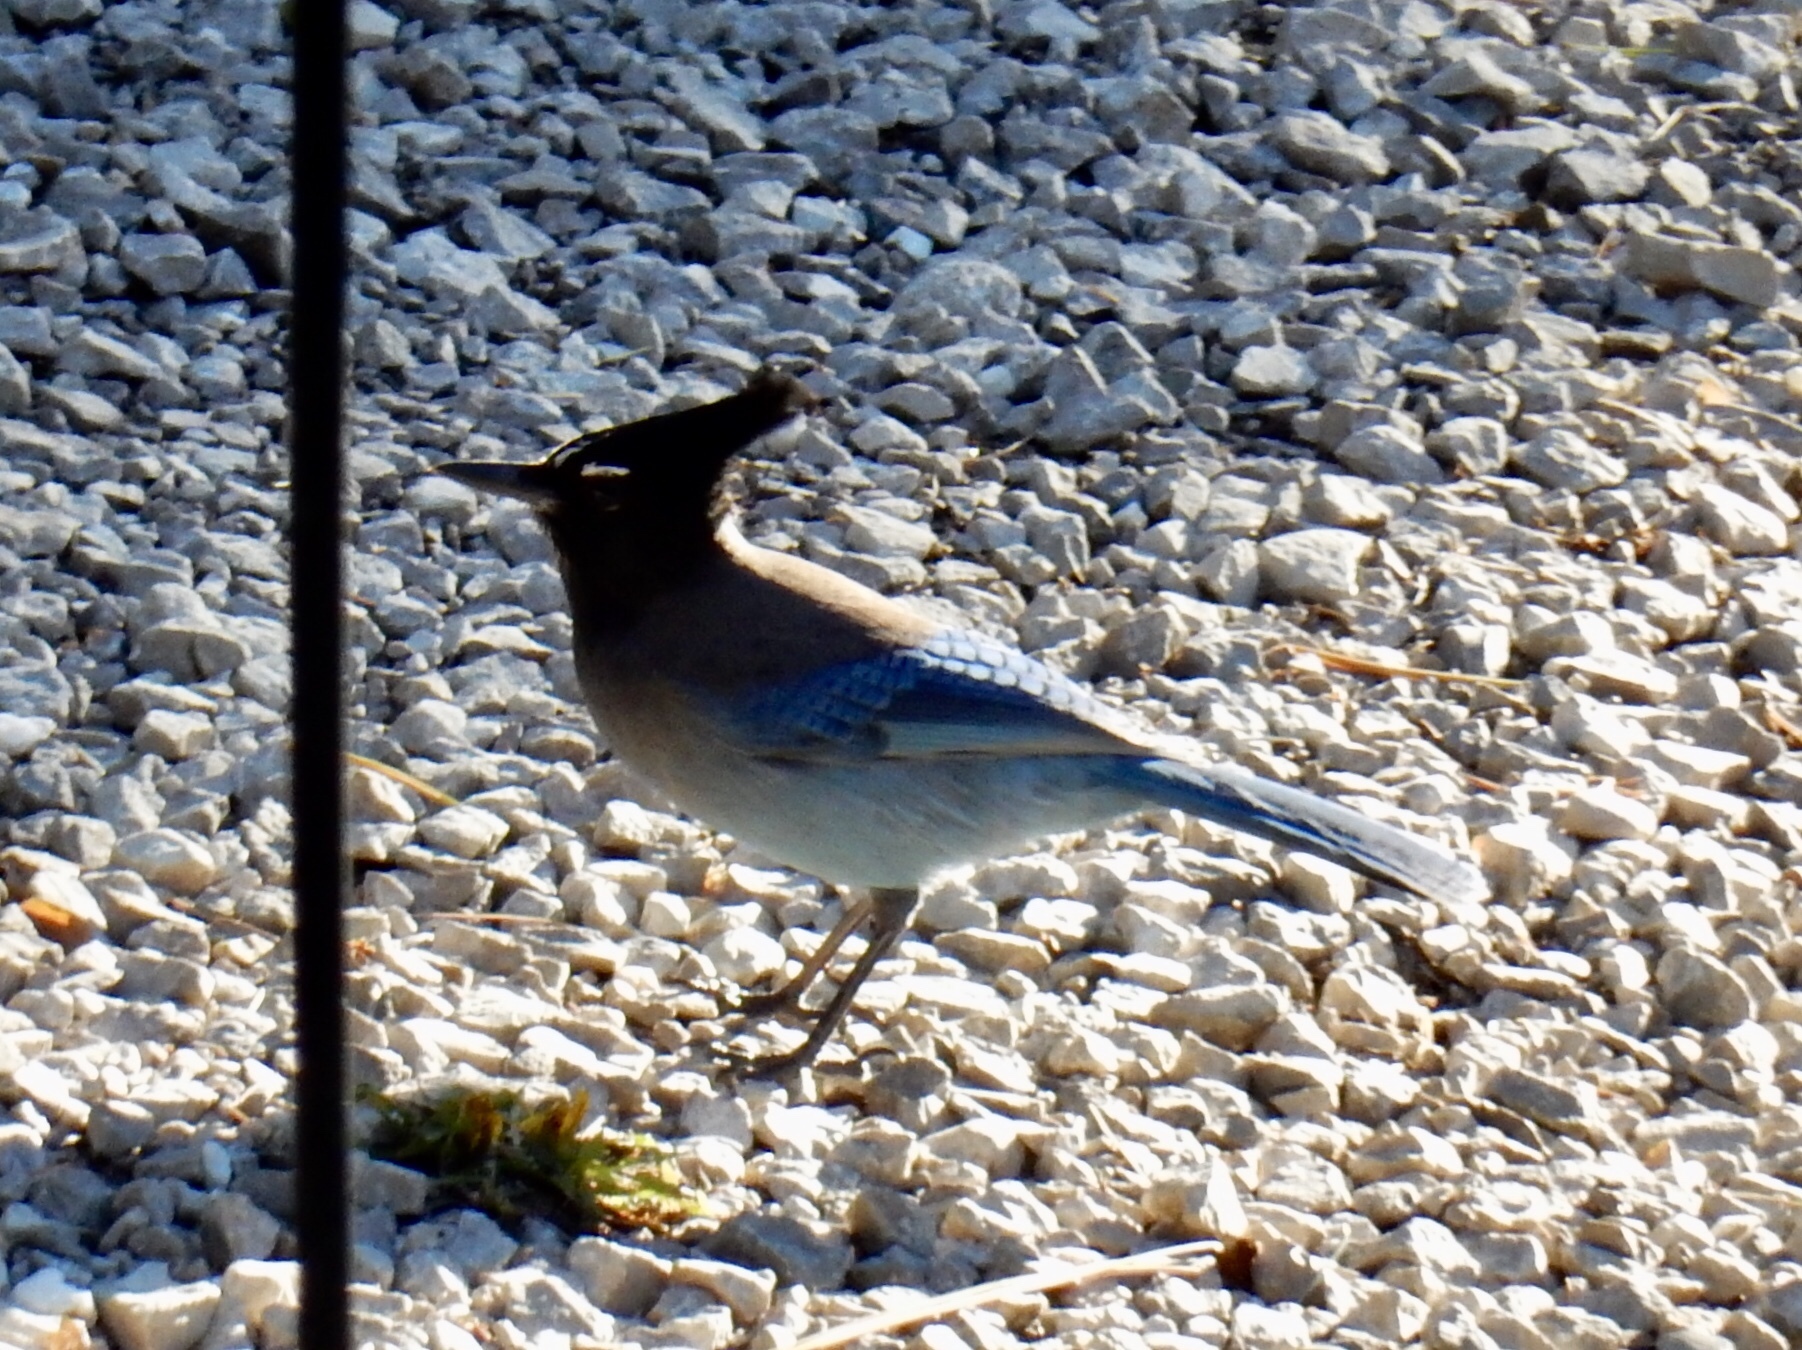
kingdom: Animalia
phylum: Chordata
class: Aves
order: Passeriformes
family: Corvidae
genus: Cyanocitta
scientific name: Cyanocitta stelleri
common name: Steller's jay
